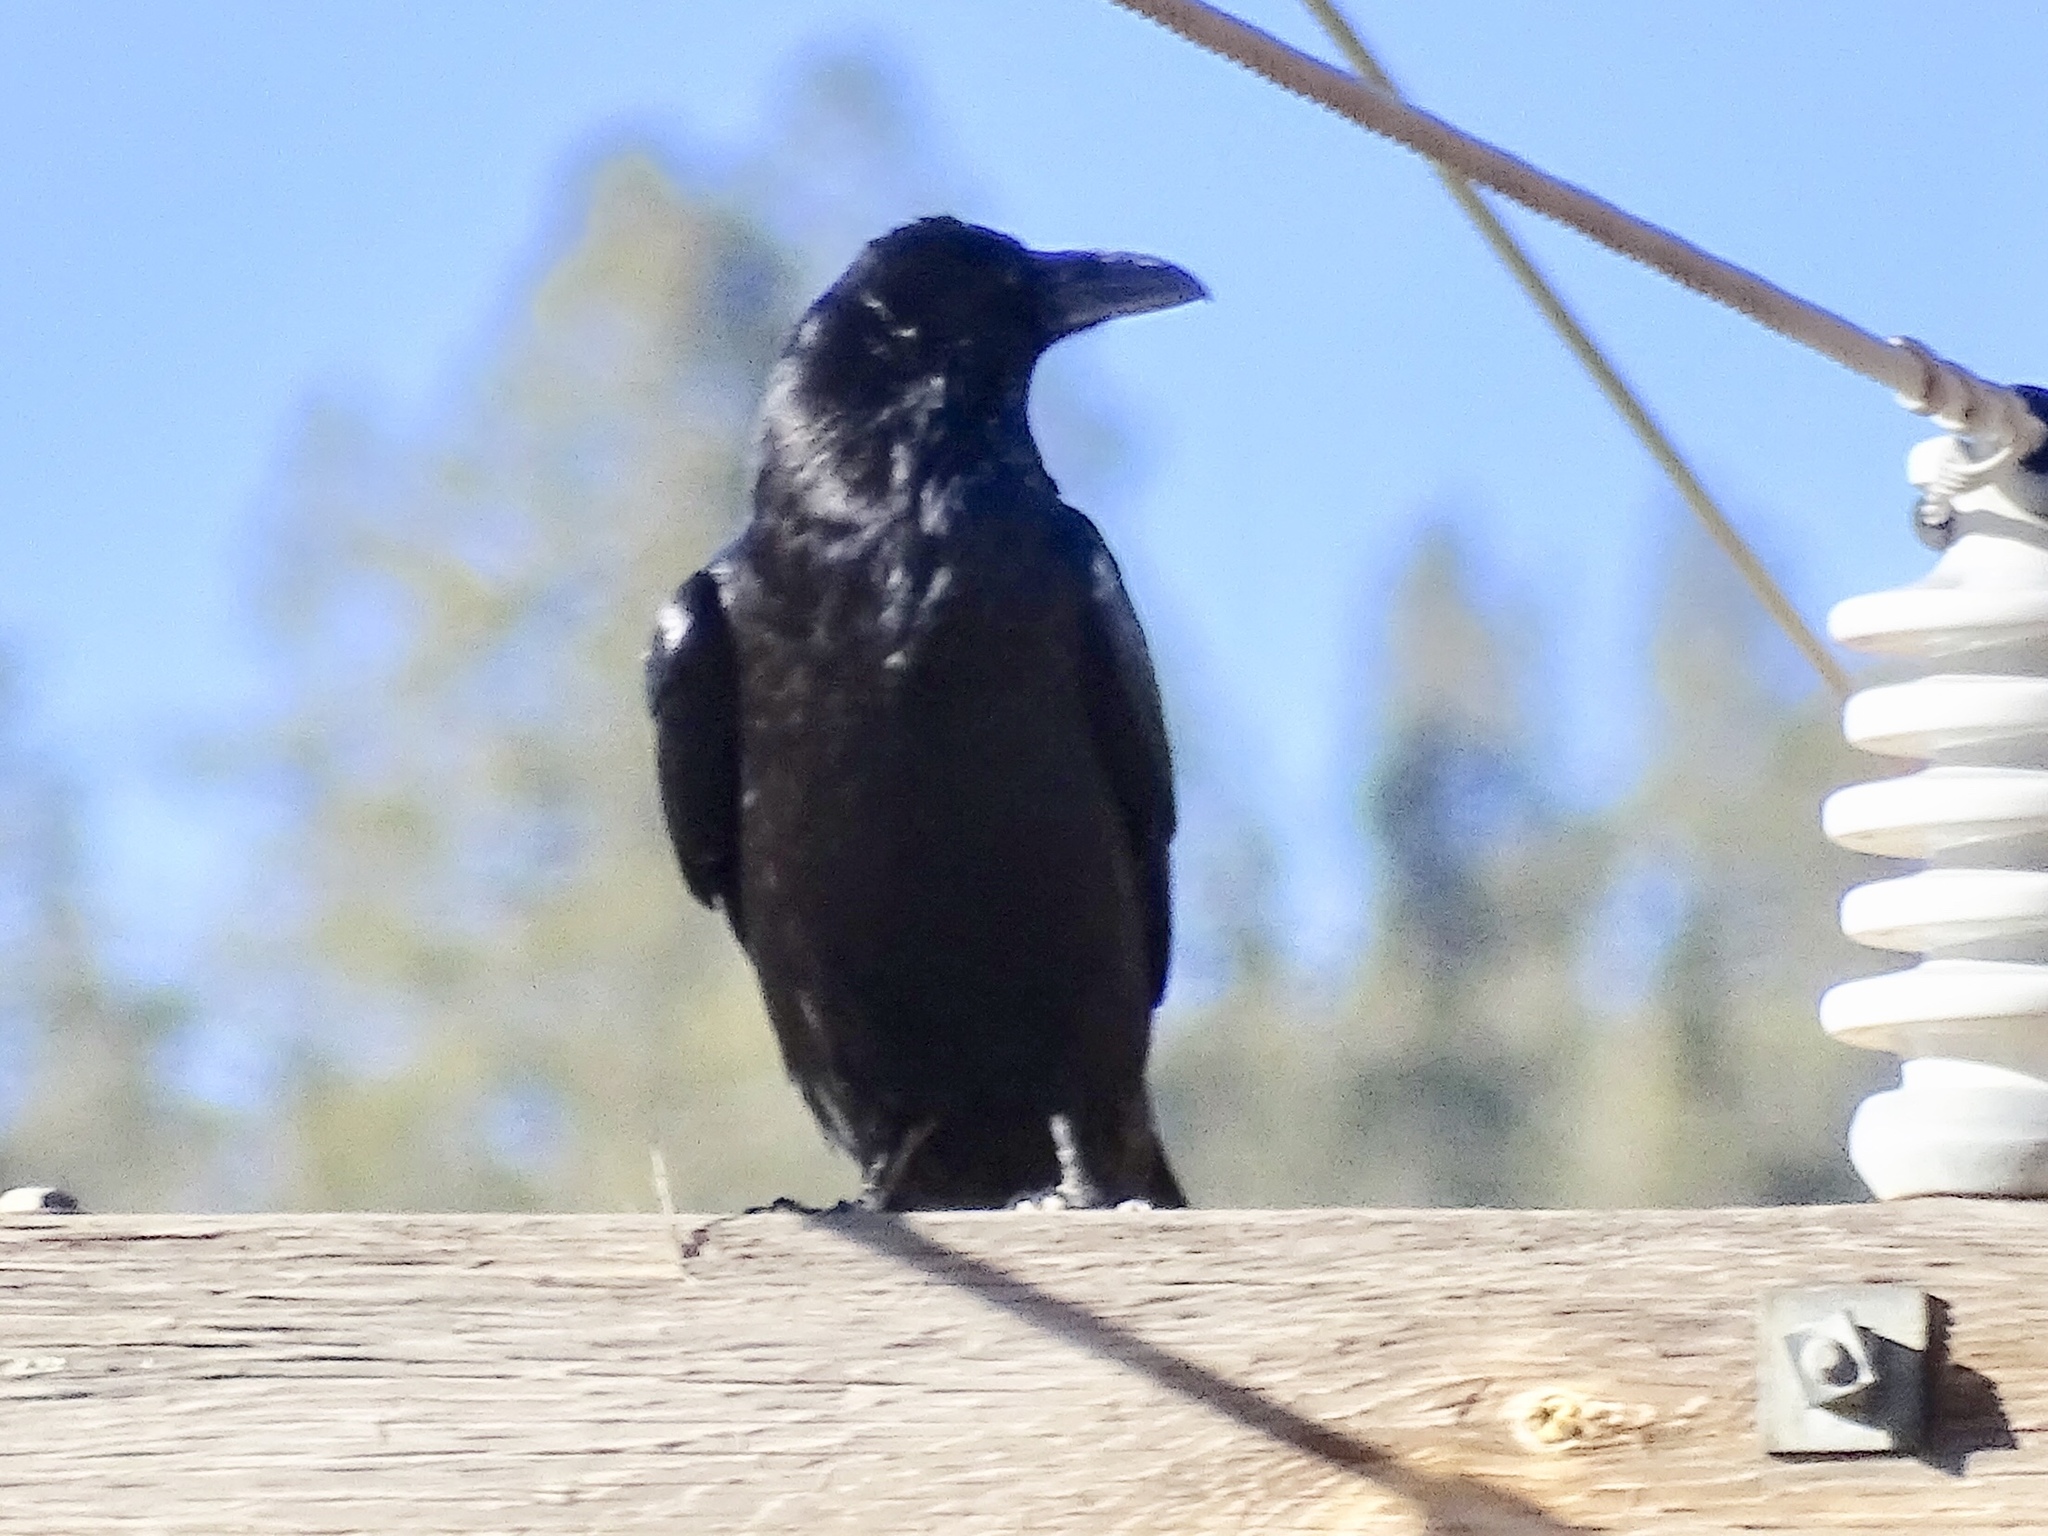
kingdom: Animalia
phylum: Chordata
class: Aves
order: Passeriformes
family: Corvidae
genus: Corvus
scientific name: Corvus corax
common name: Common raven
